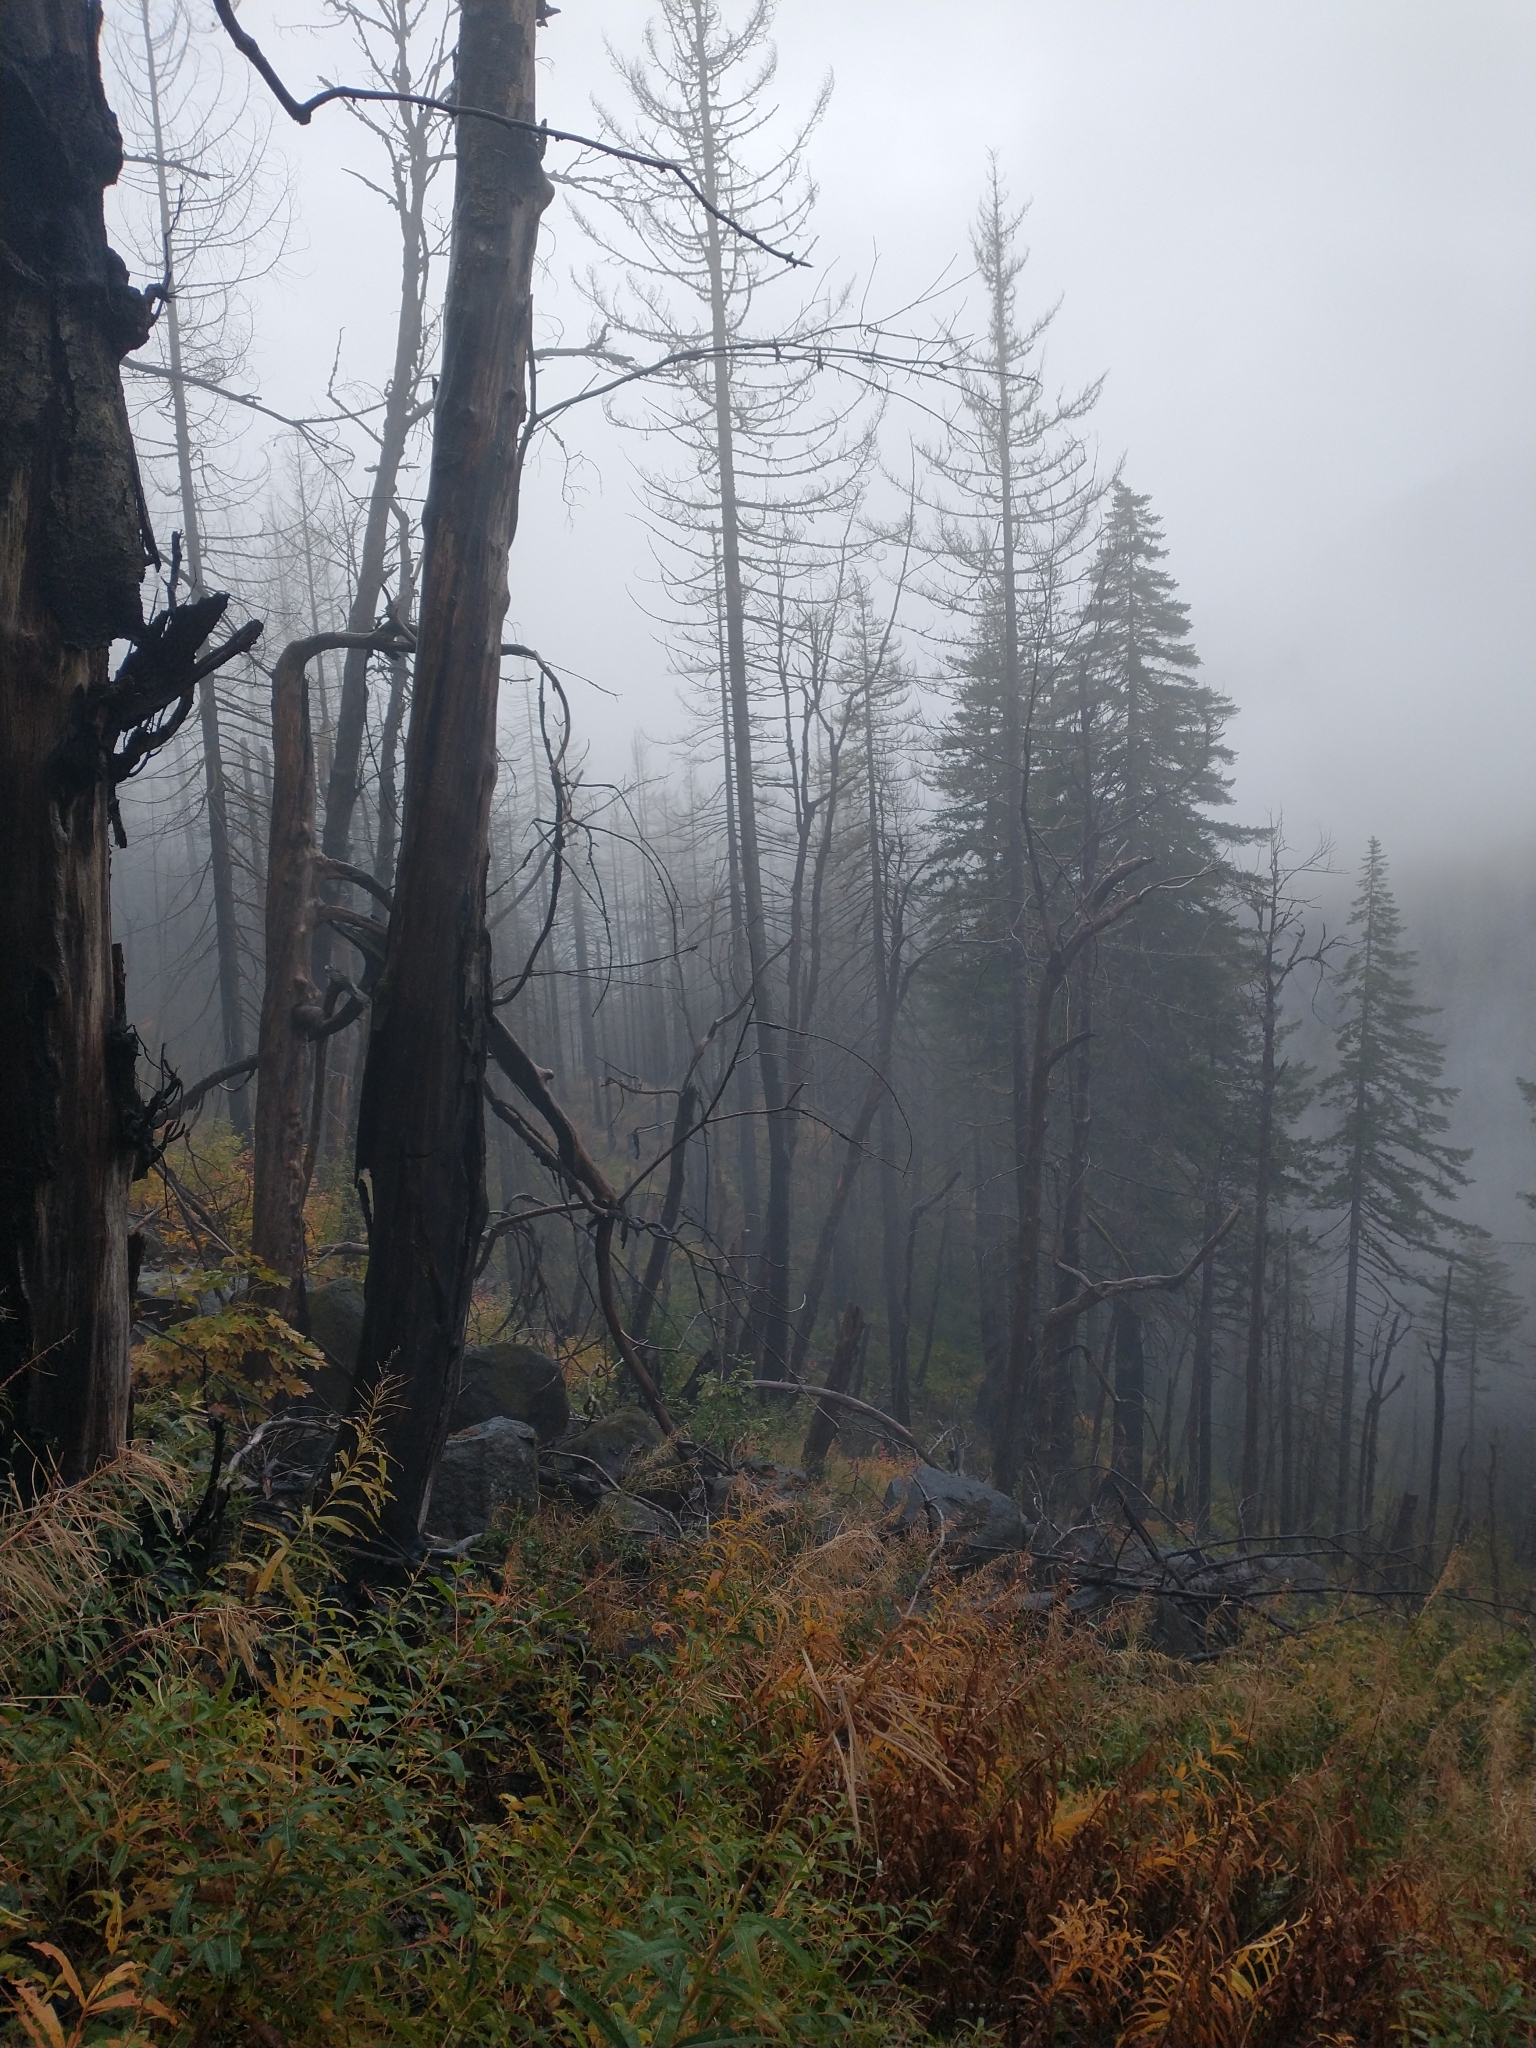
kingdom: Plantae
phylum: Tracheophyta
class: Magnoliopsida
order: Sapindales
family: Sapindaceae
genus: Acer
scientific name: Acer macrophyllum
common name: Oregon maple
